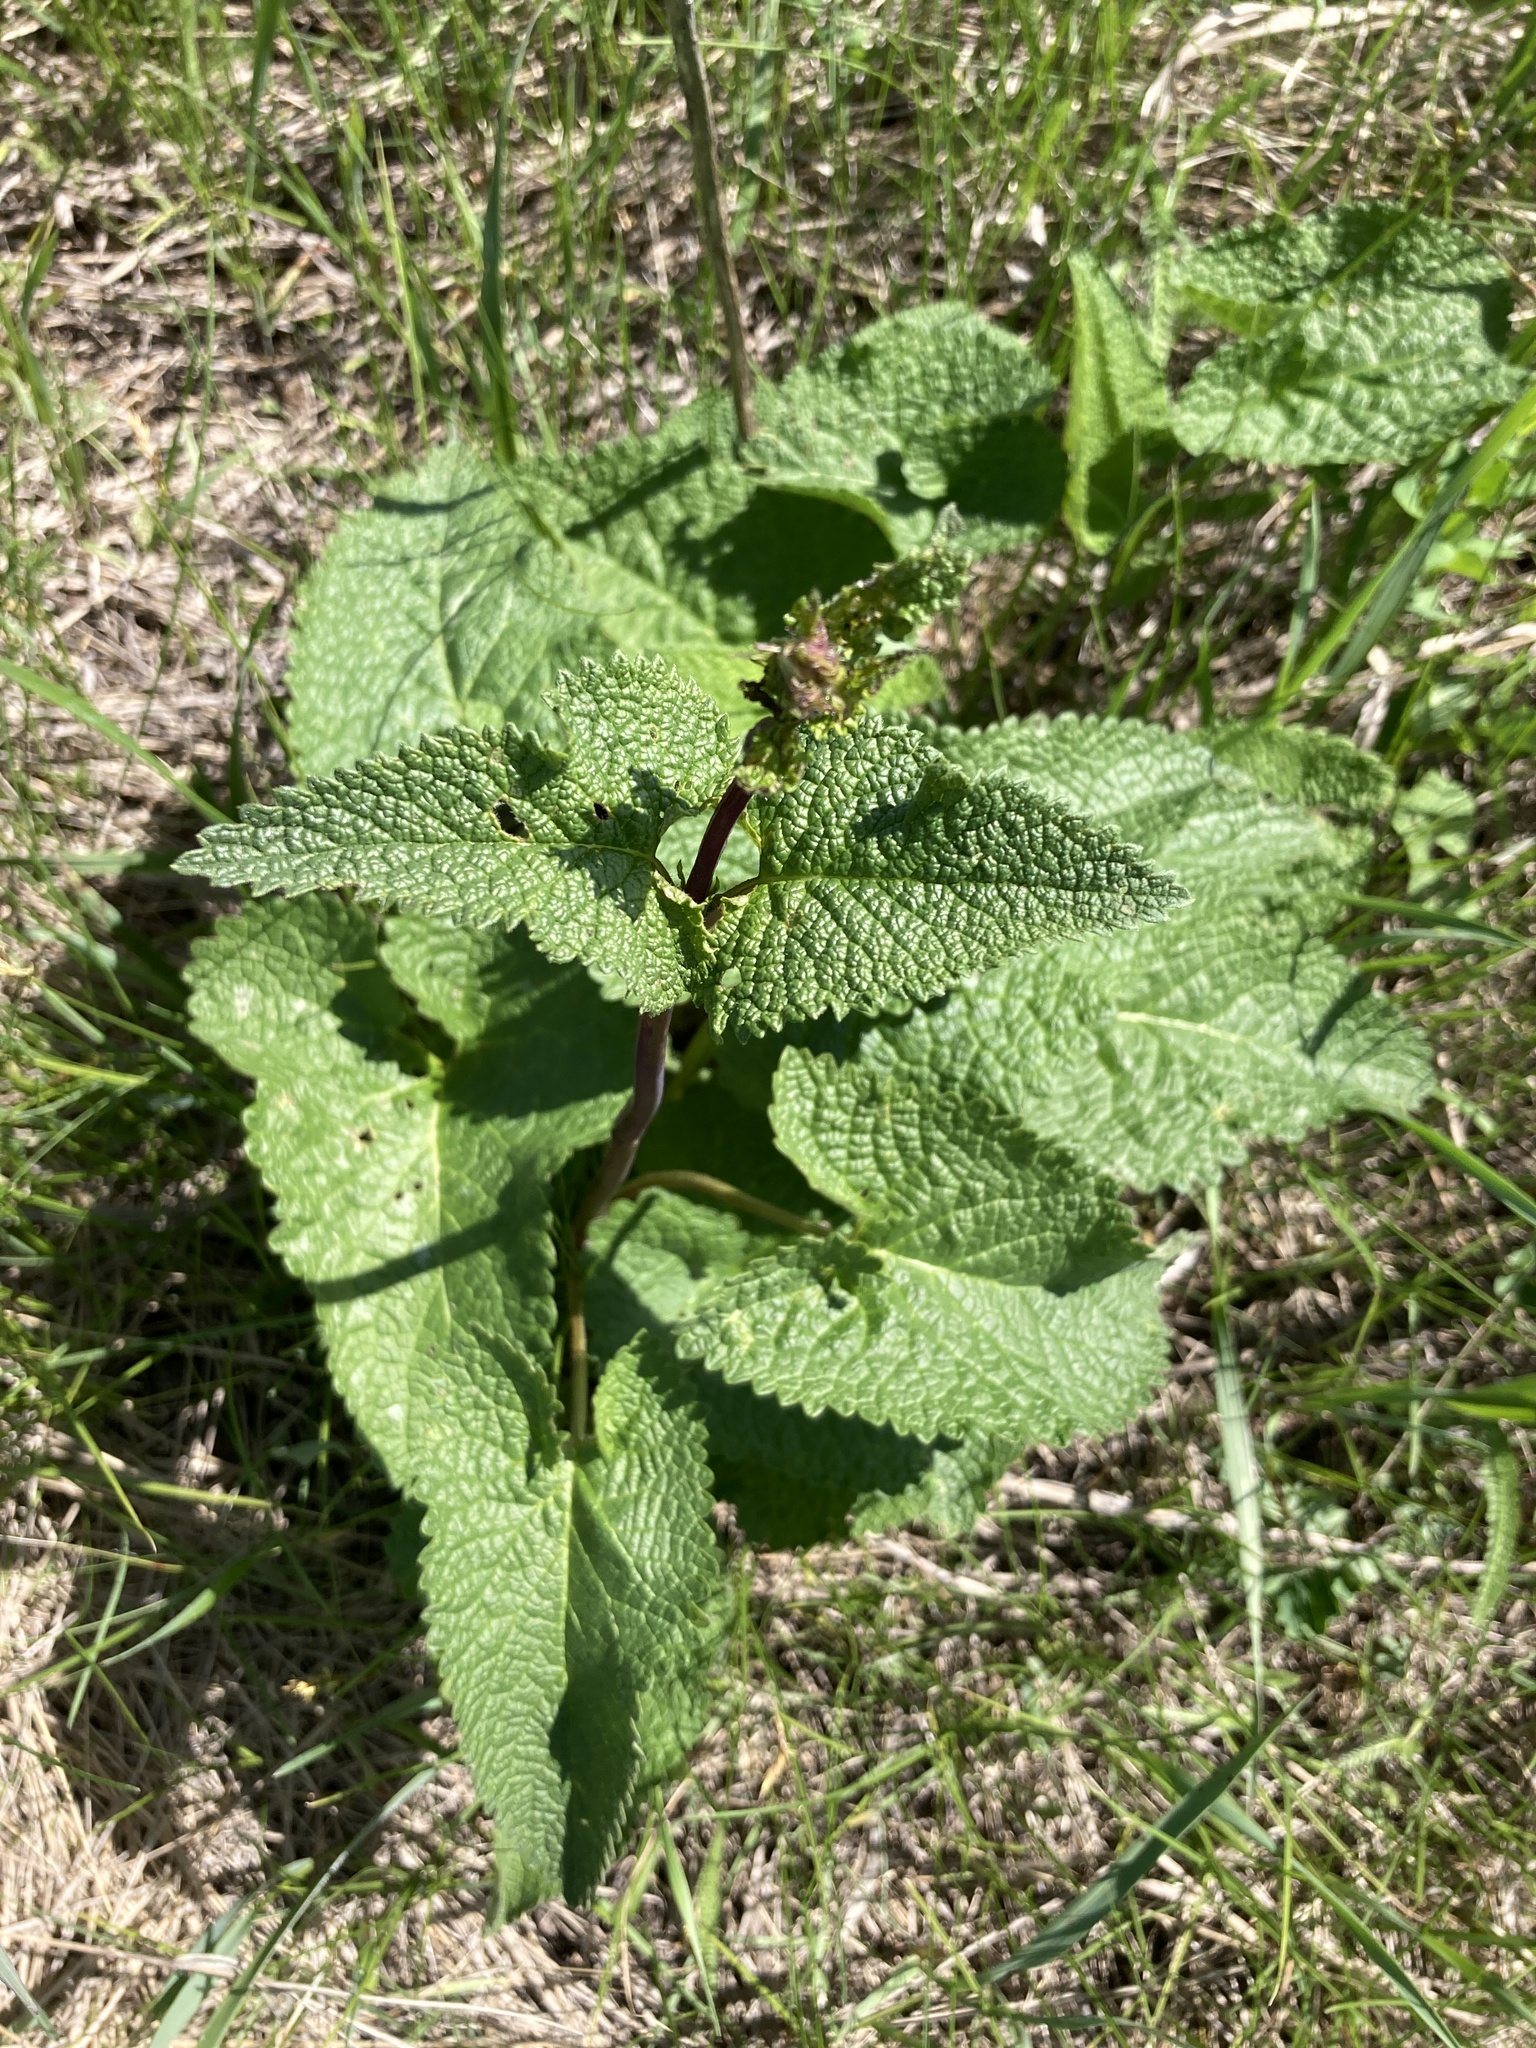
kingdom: Plantae
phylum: Tracheophyta
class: Magnoliopsida
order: Lamiales
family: Lamiaceae
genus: Phlomoides
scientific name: Phlomoides tuberosa
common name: Tuberous jerusalem sage
